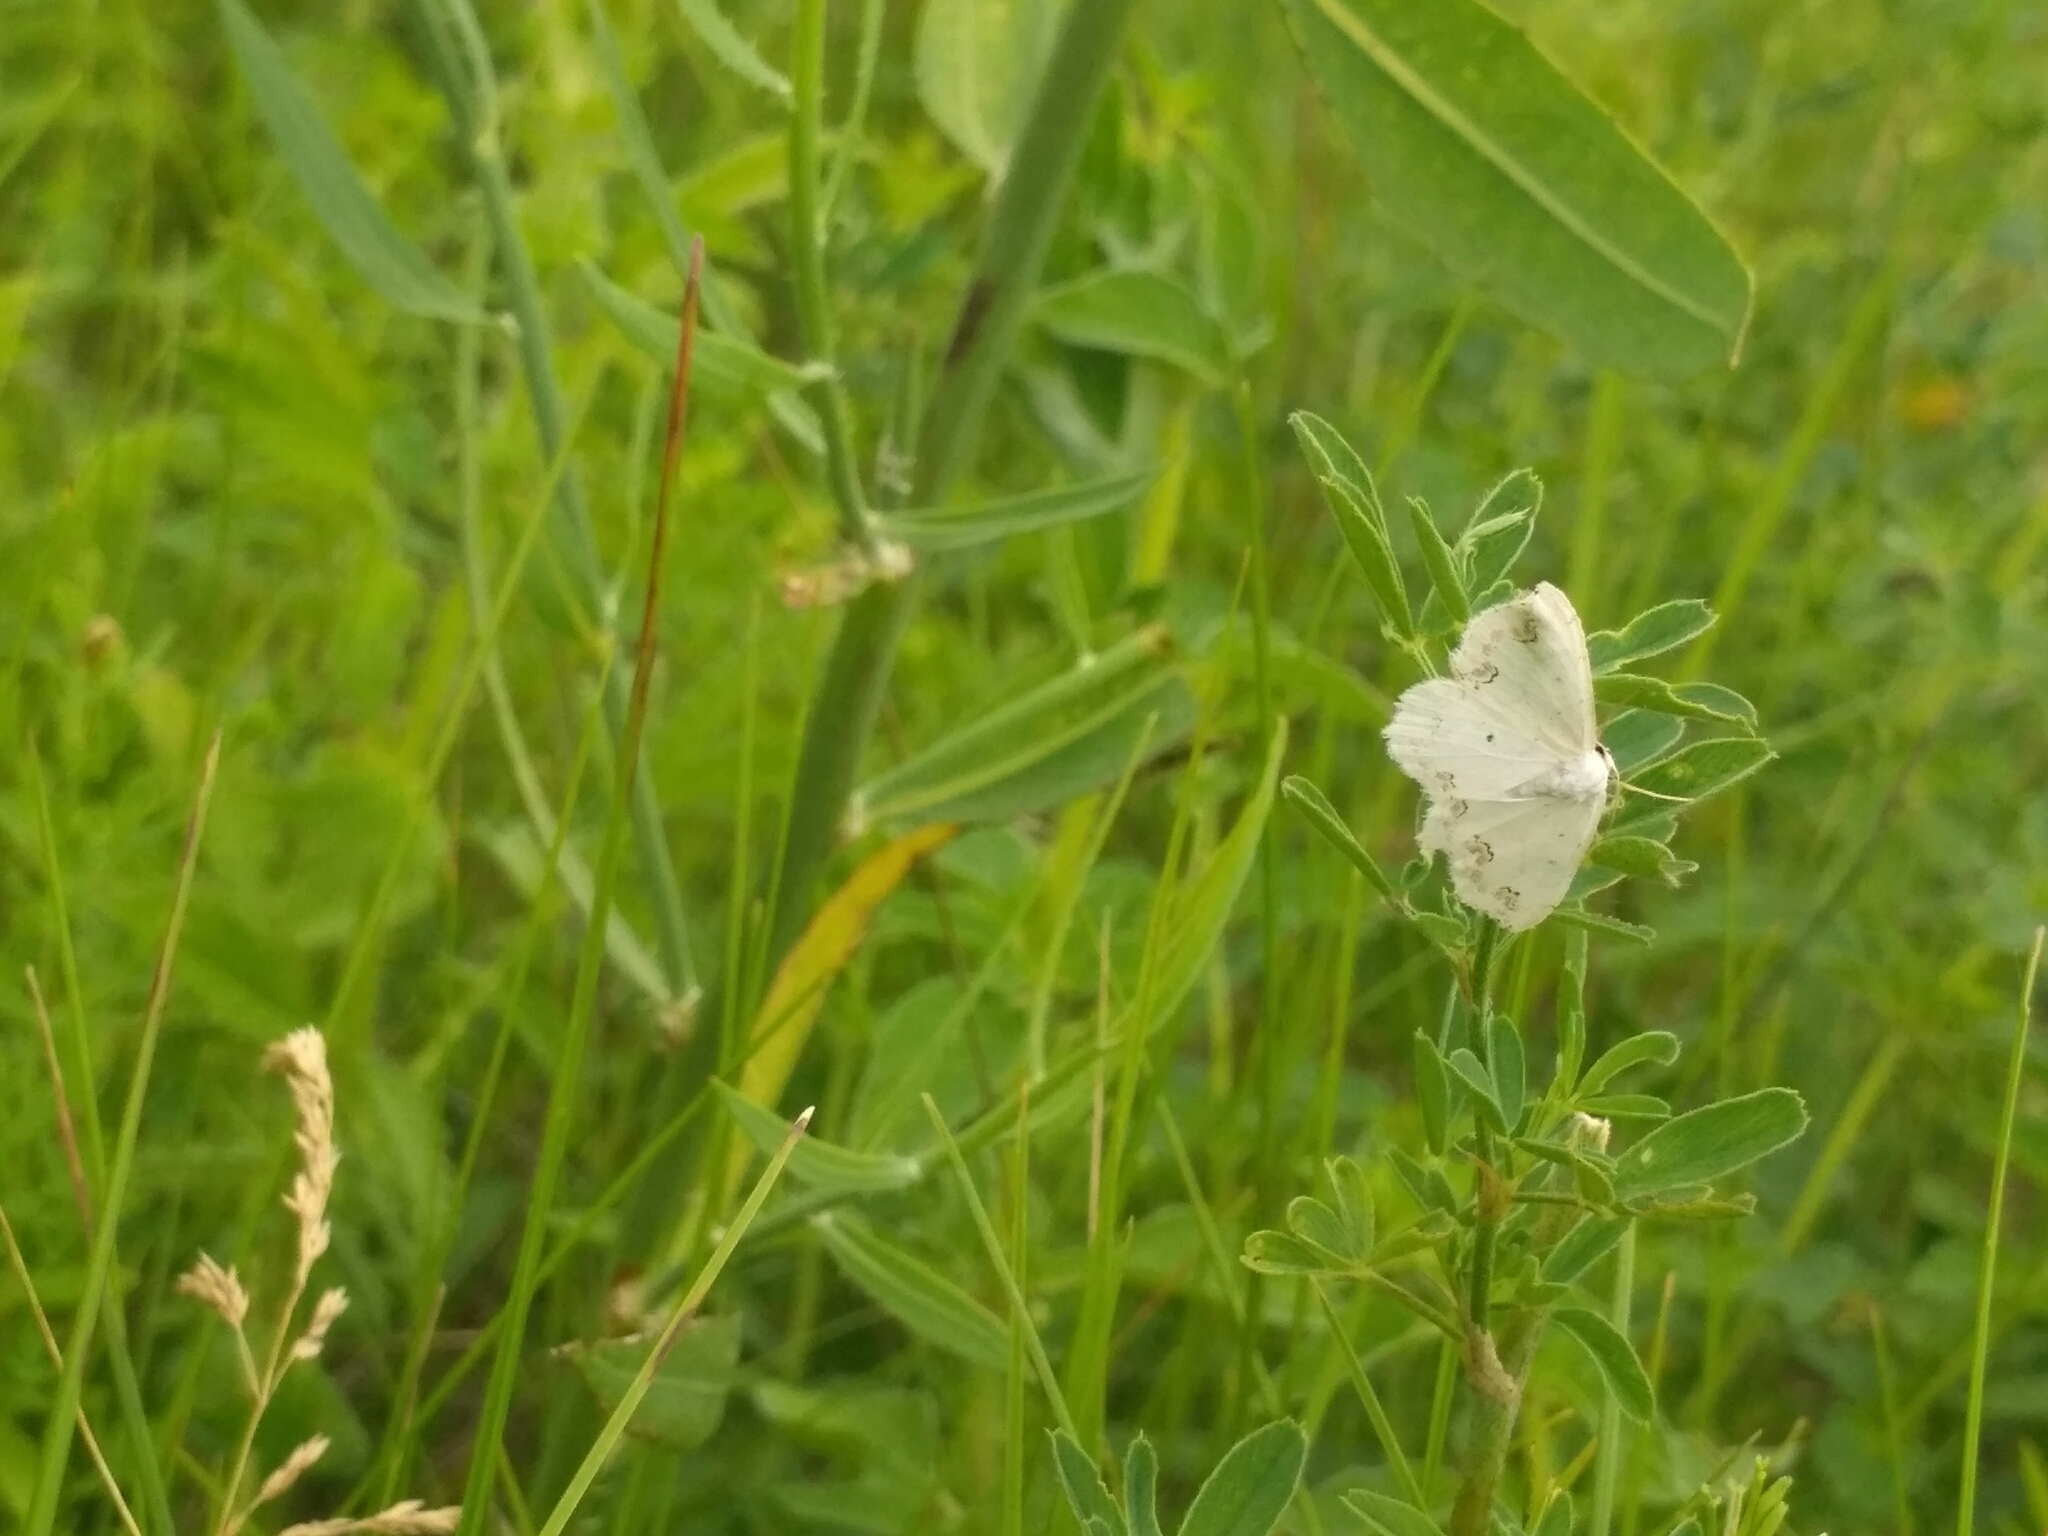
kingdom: Animalia
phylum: Arthropoda
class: Insecta
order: Lepidoptera
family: Geometridae
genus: Scopula
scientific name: Scopula ornata
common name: Lace border
